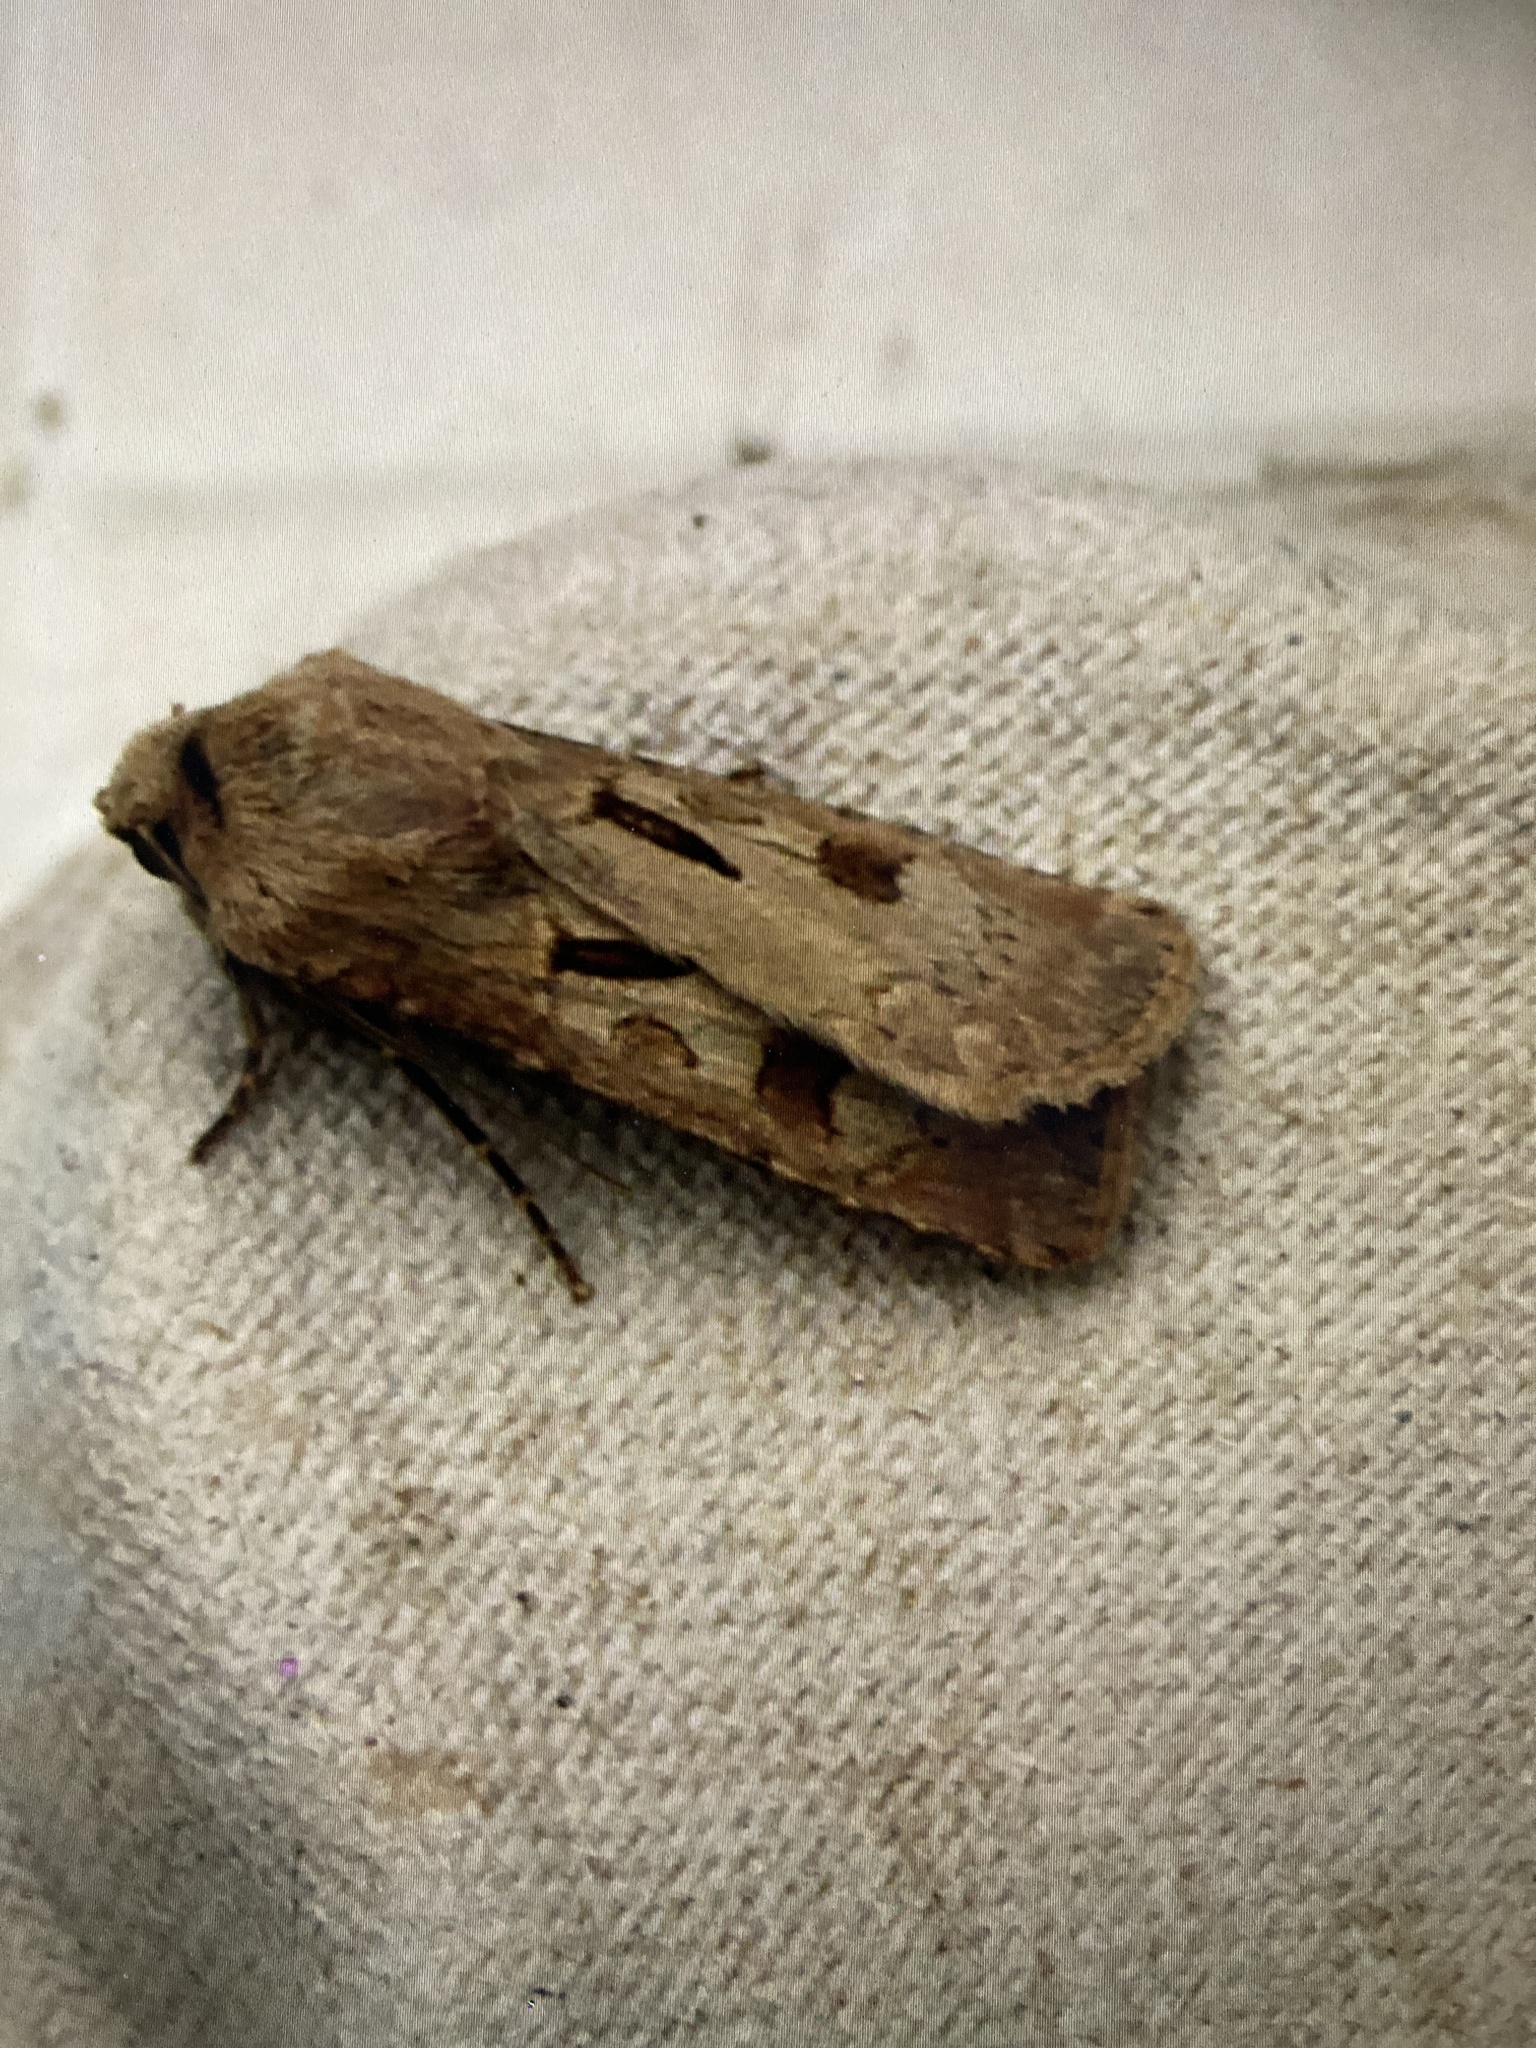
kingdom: Animalia
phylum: Arthropoda
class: Insecta
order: Lepidoptera
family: Noctuidae
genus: Agrotis
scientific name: Agrotis exclamationis
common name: Heart and dart
